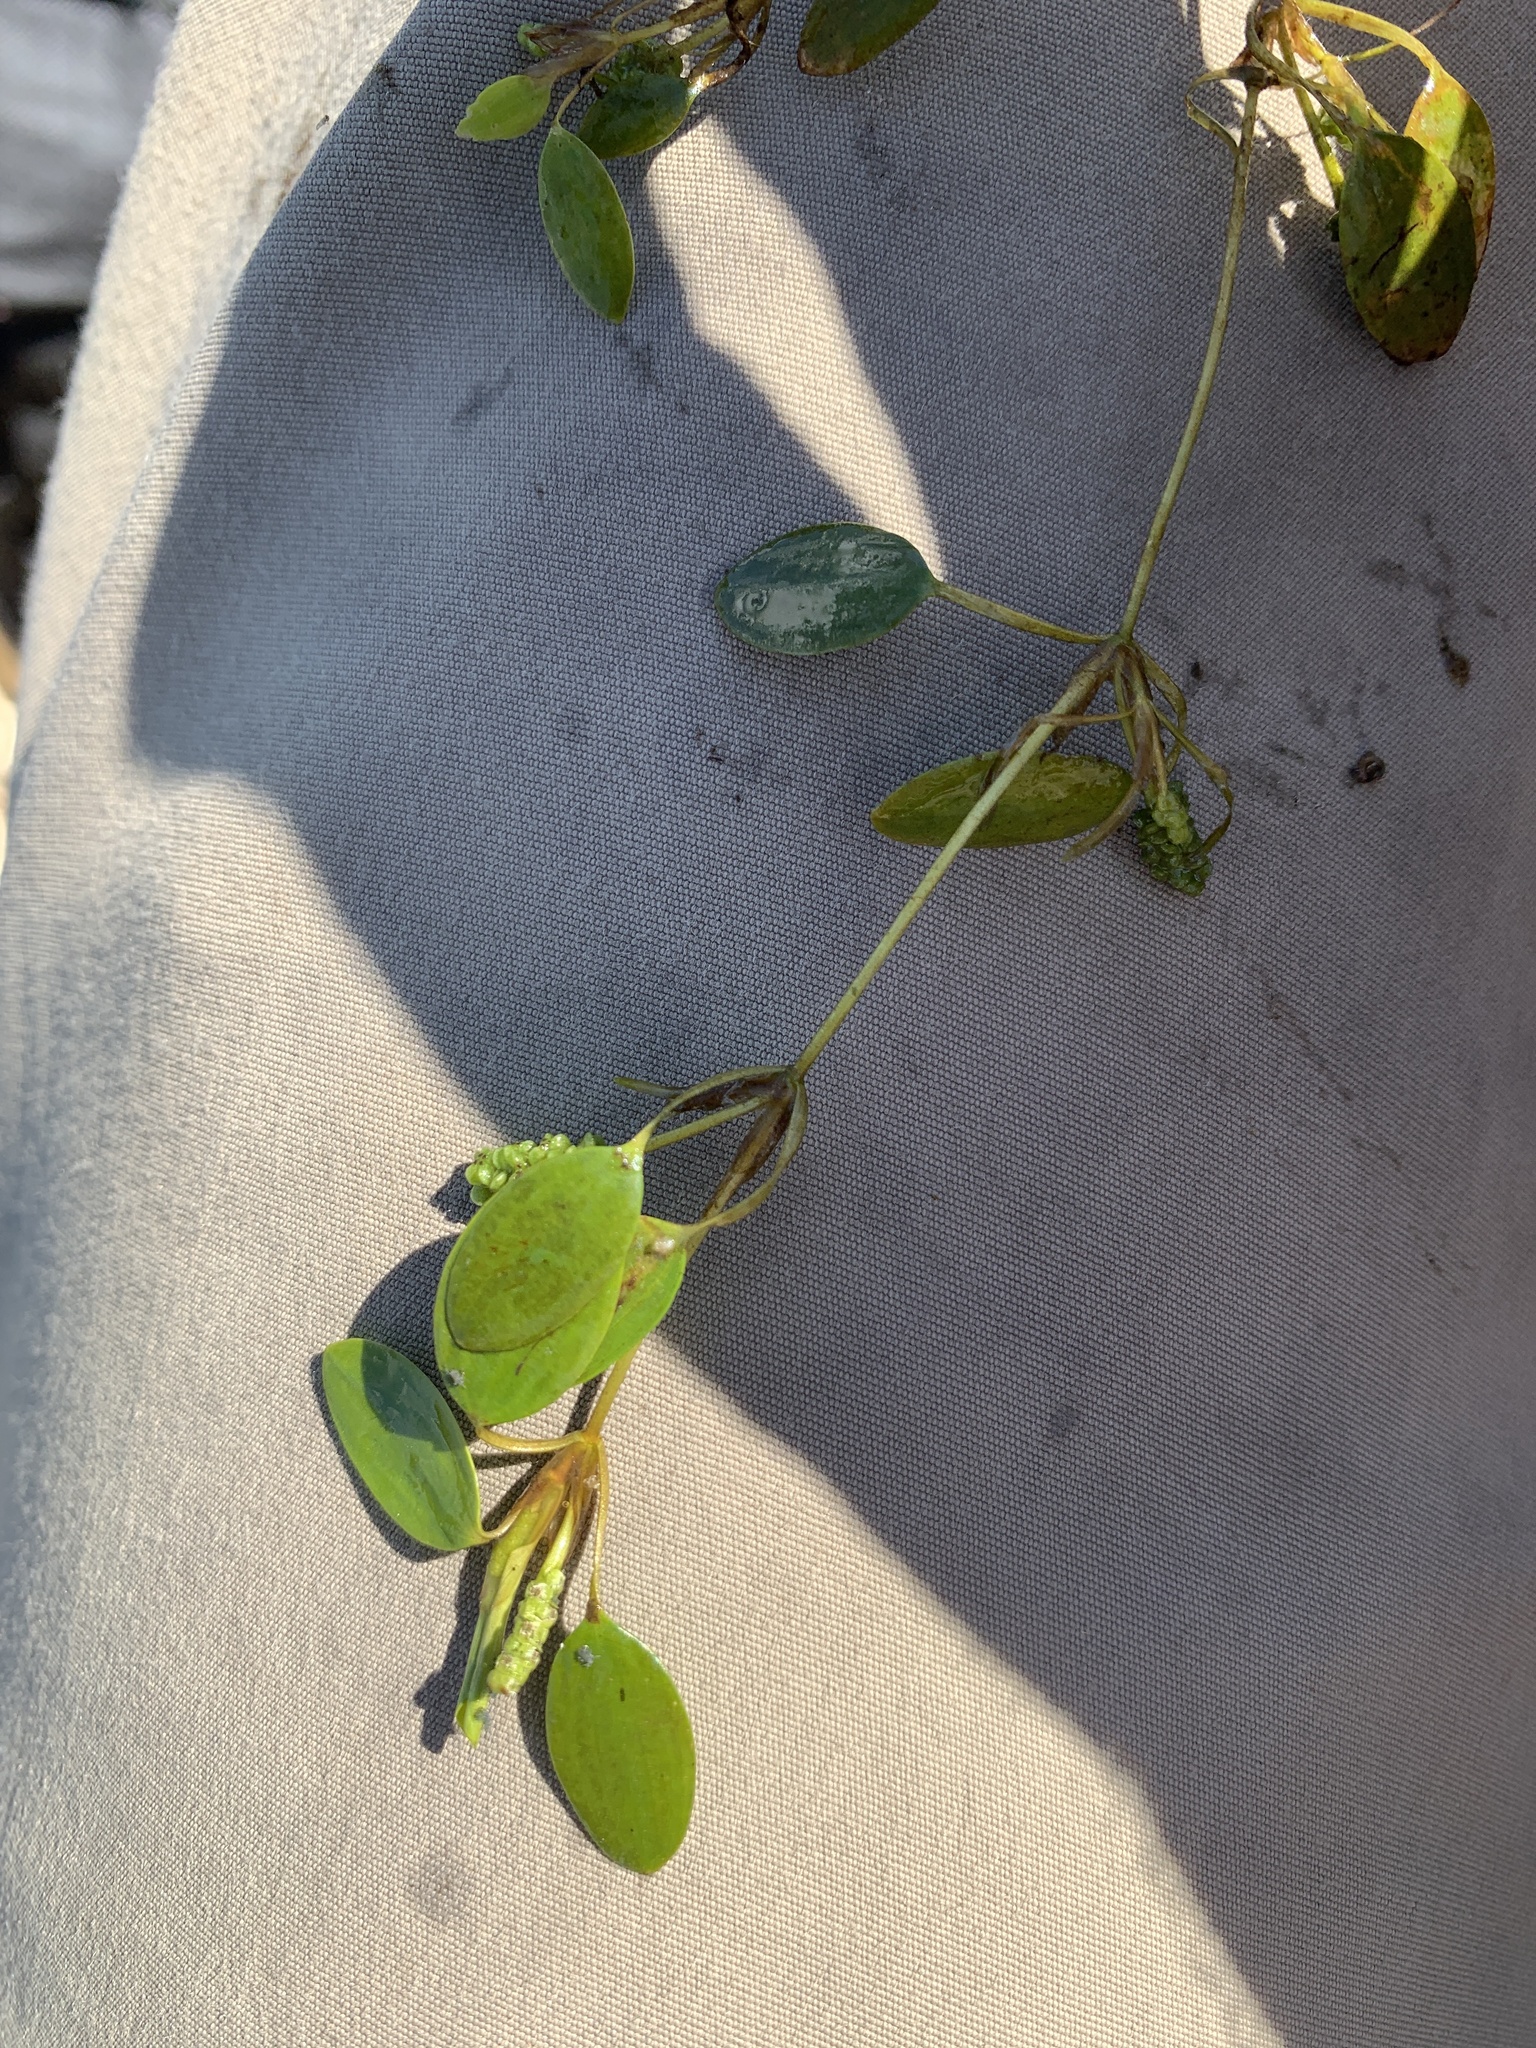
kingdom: Plantae
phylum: Tracheophyta
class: Liliopsida
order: Alismatales
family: Potamogetonaceae
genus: Potamogeton
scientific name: Potamogeton vaseyi
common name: Vasey's pondweed
